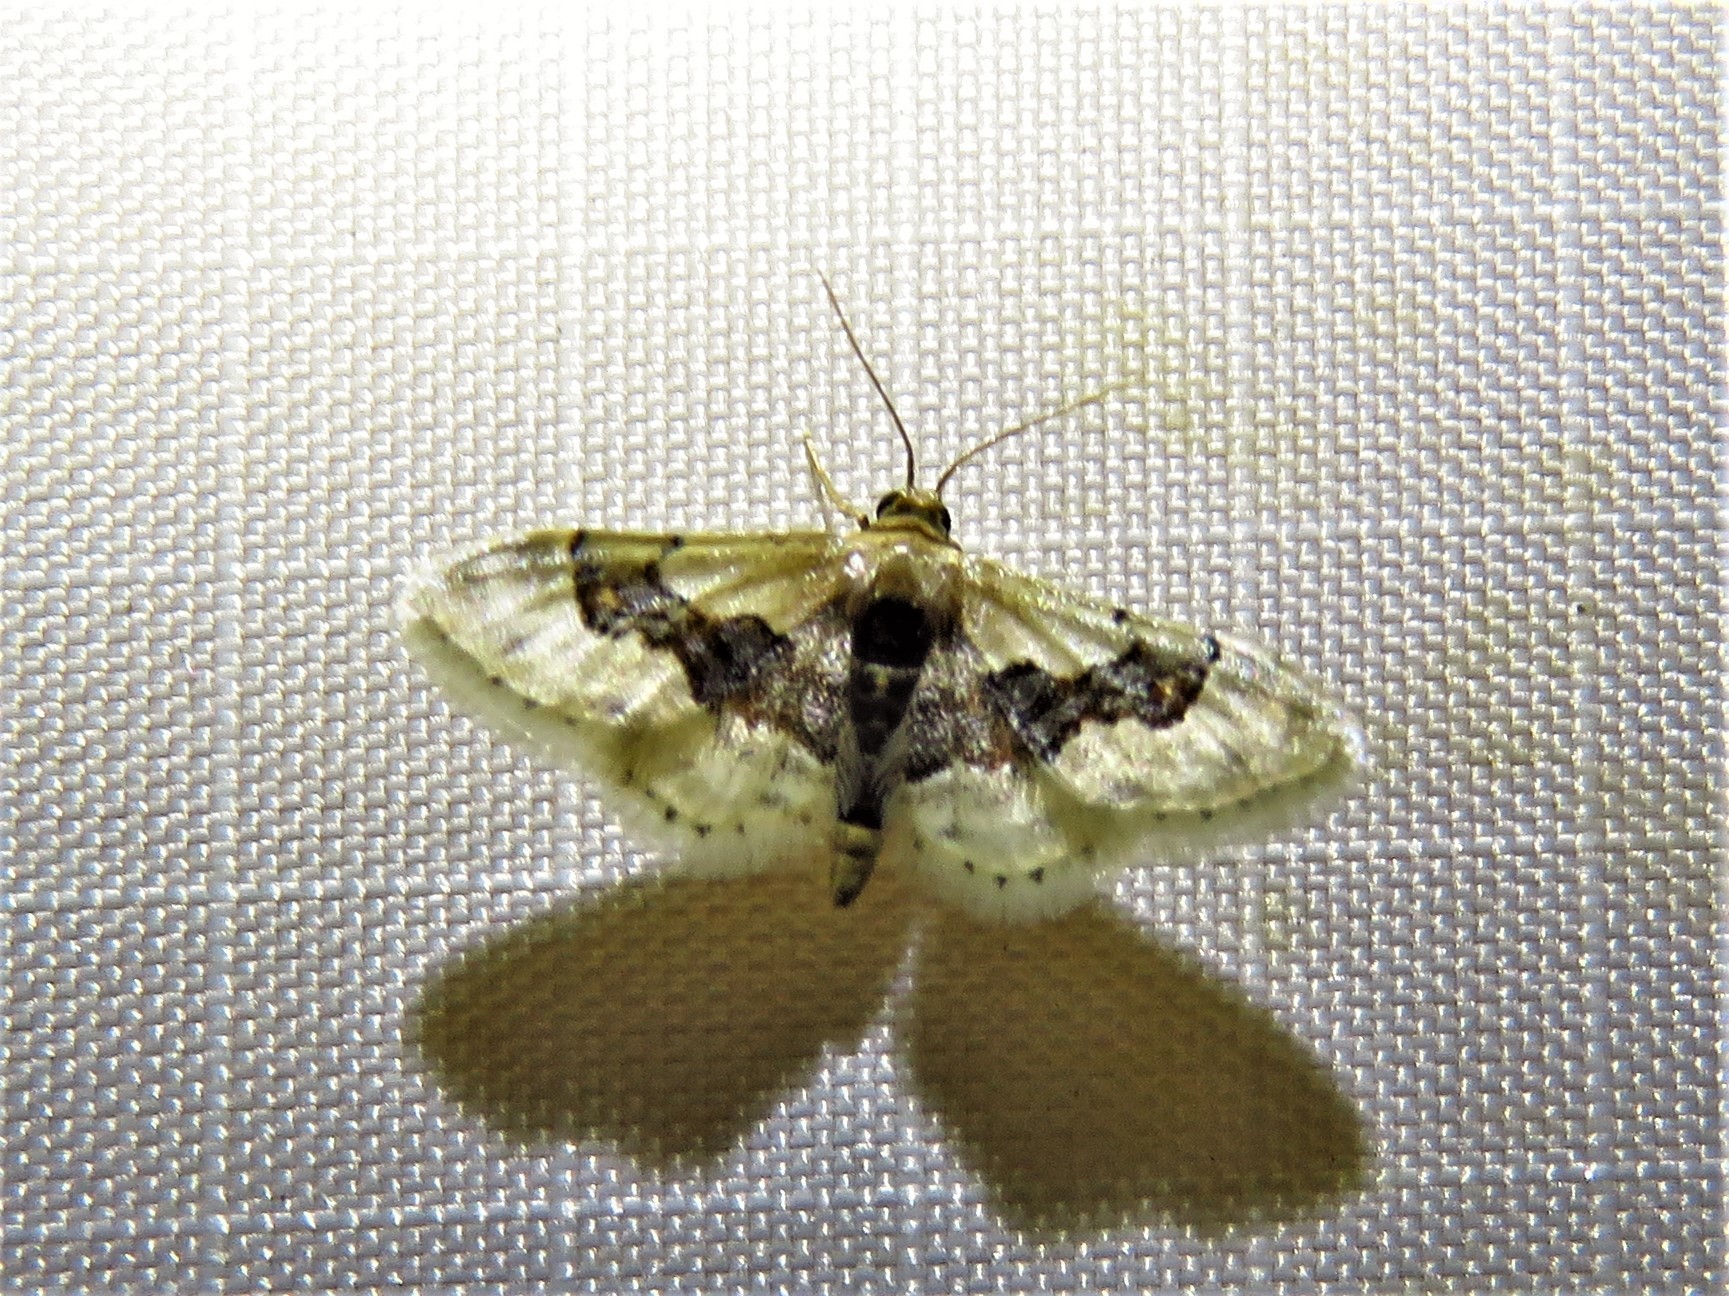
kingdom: Animalia
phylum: Arthropoda
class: Insecta
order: Lepidoptera
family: Geometridae
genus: Idaea
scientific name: Idaea gemmata
